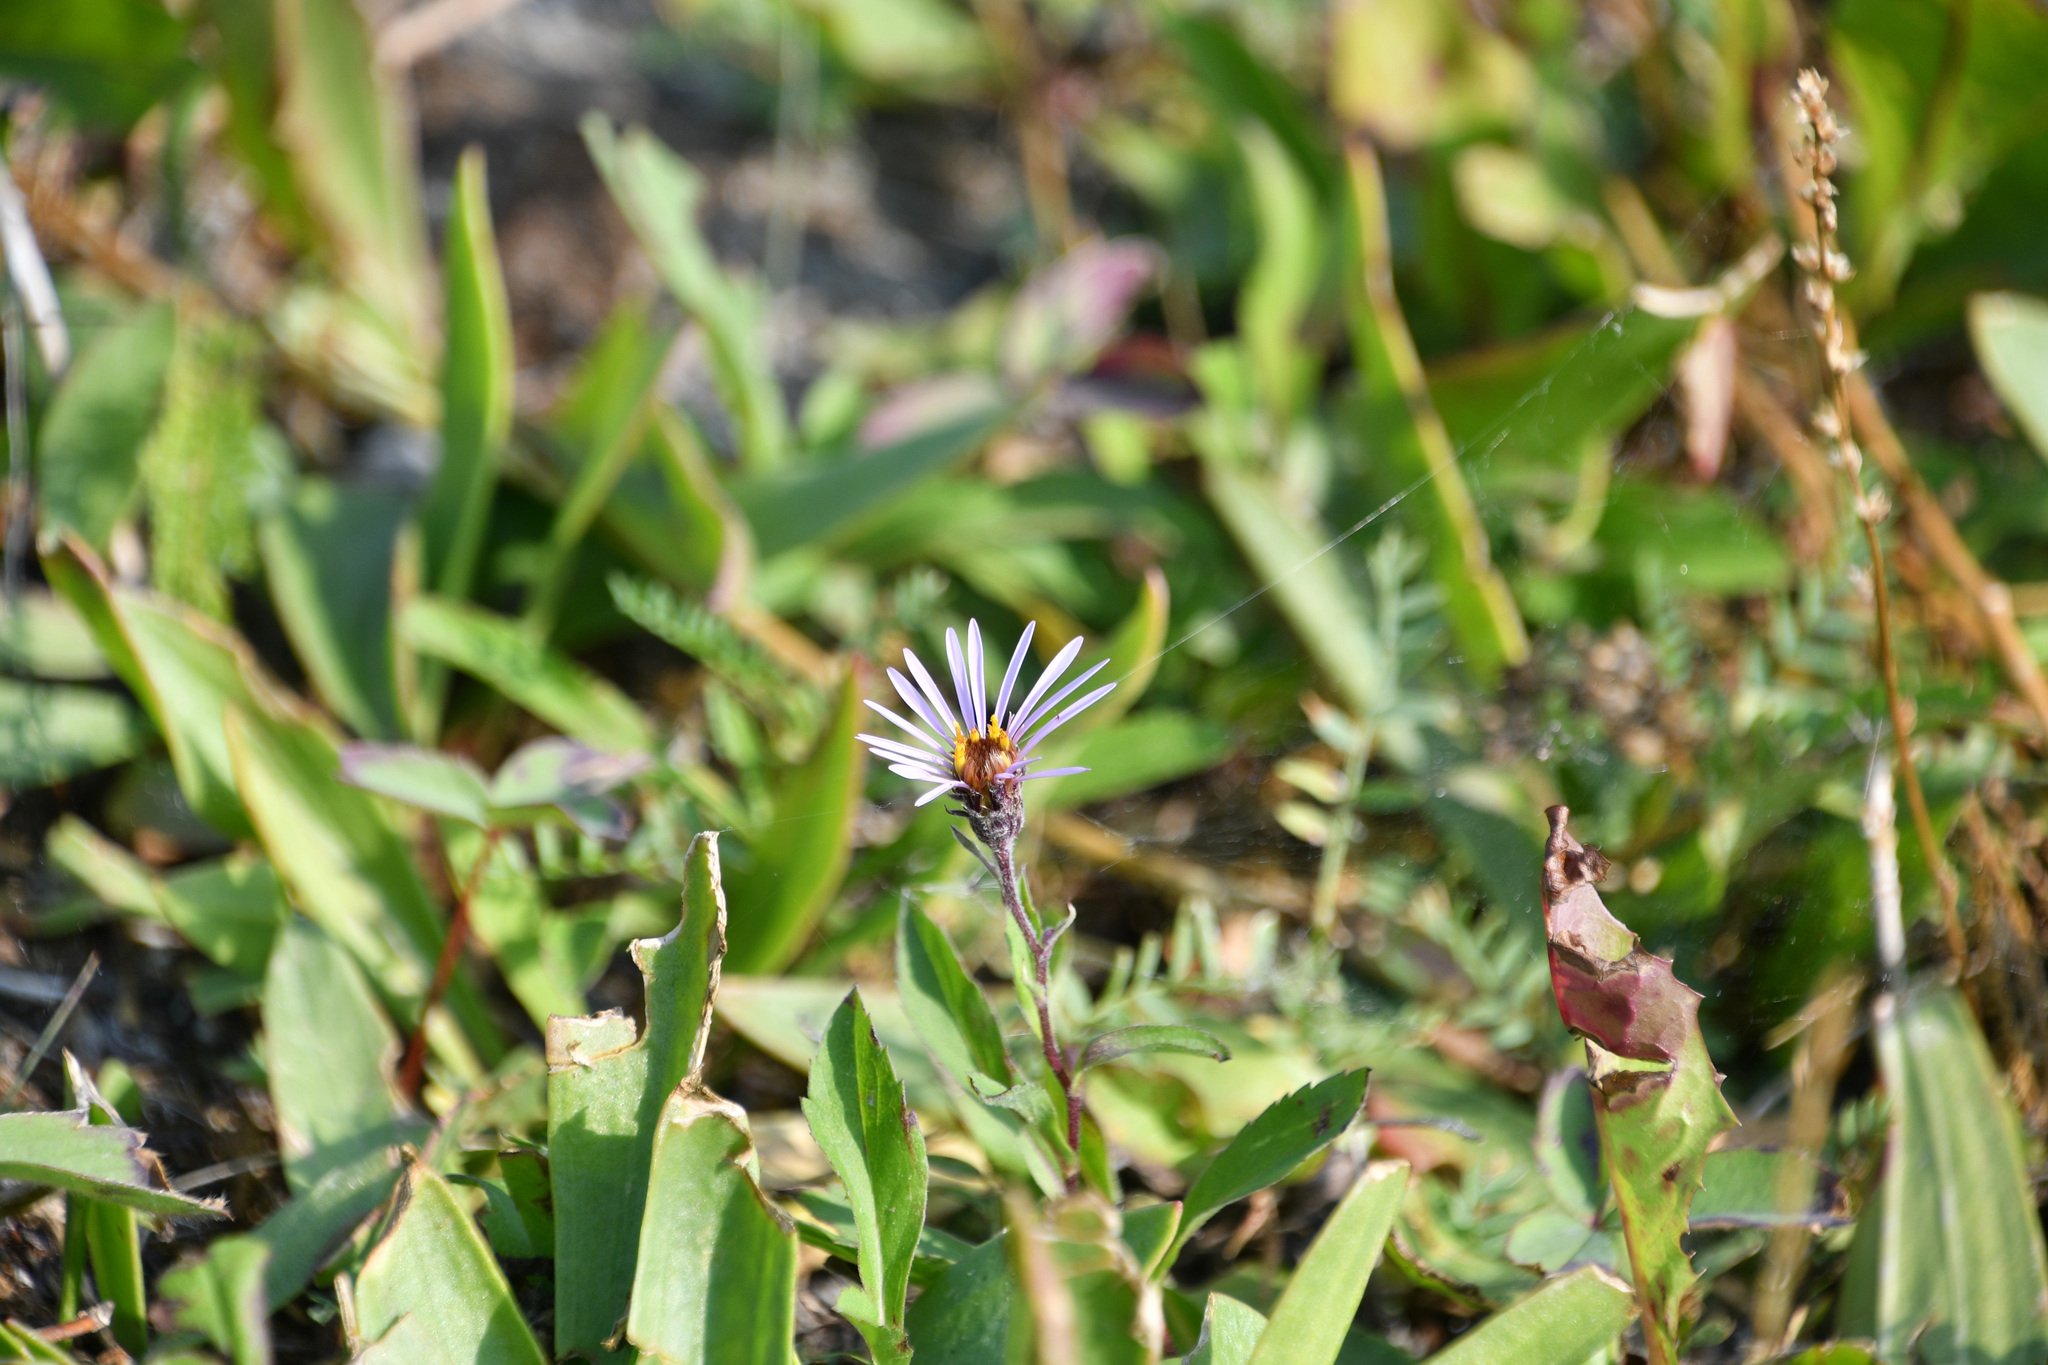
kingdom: Plantae
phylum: Tracheophyta
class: Magnoliopsida
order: Asterales
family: Asteraceae
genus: Eurybia
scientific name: Eurybia sibirica
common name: Arctic aster
